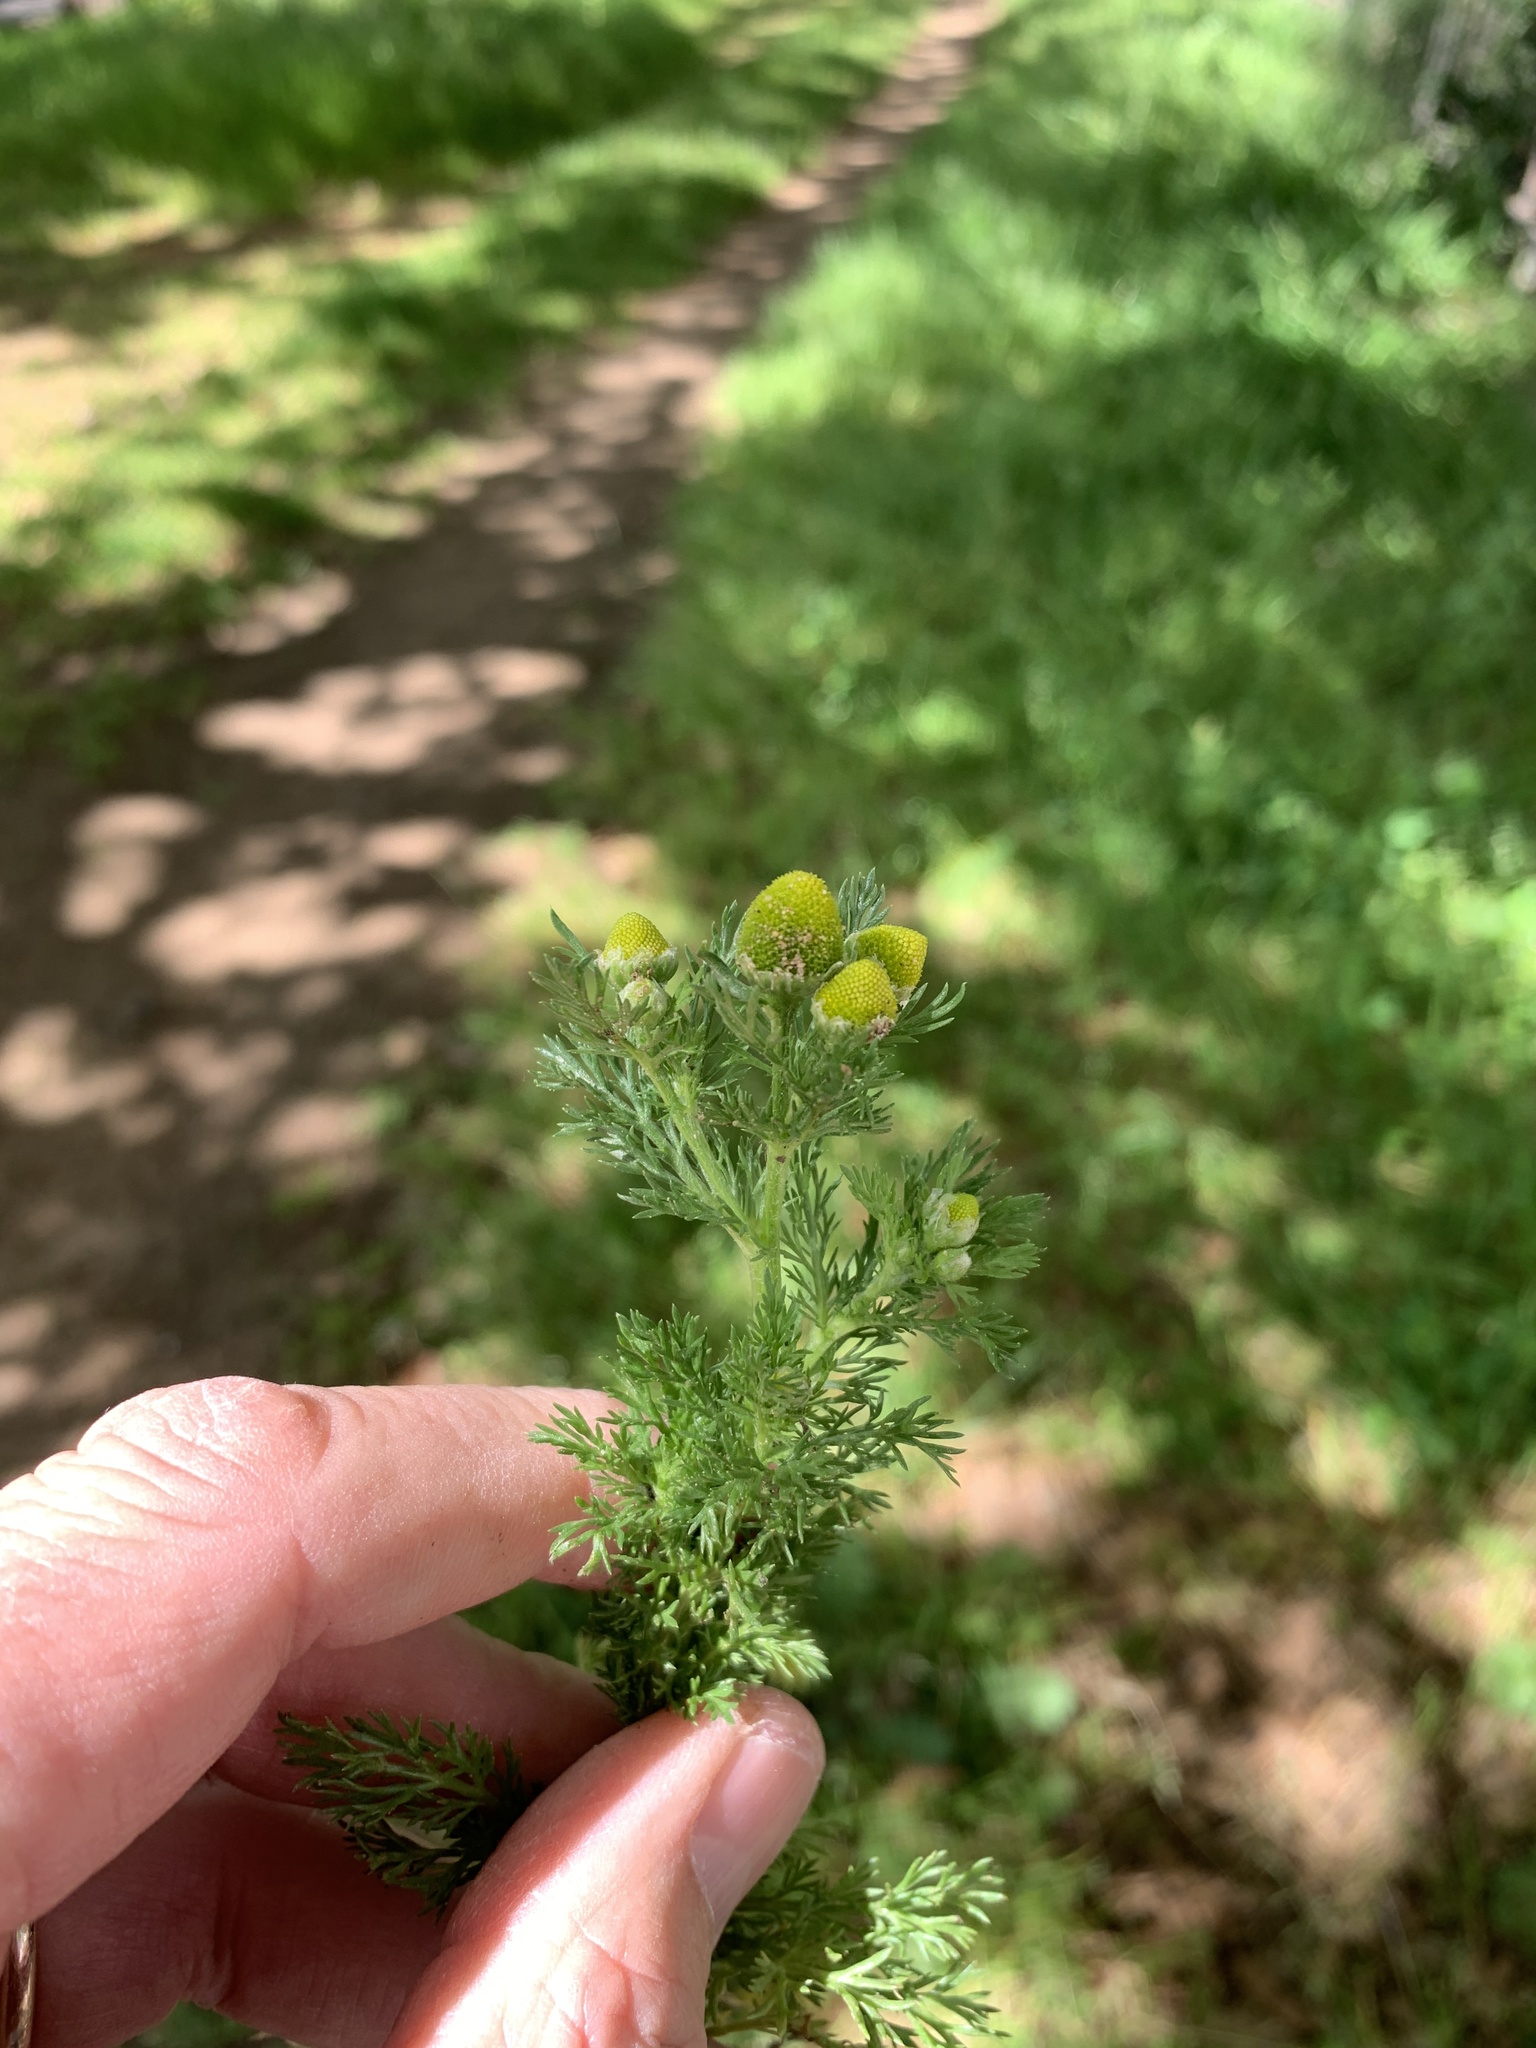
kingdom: Plantae
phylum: Tracheophyta
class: Magnoliopsida
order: Asterales
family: Asteraceae
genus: Matricaria
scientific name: Matricaria discoidea
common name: Disc mayweed
